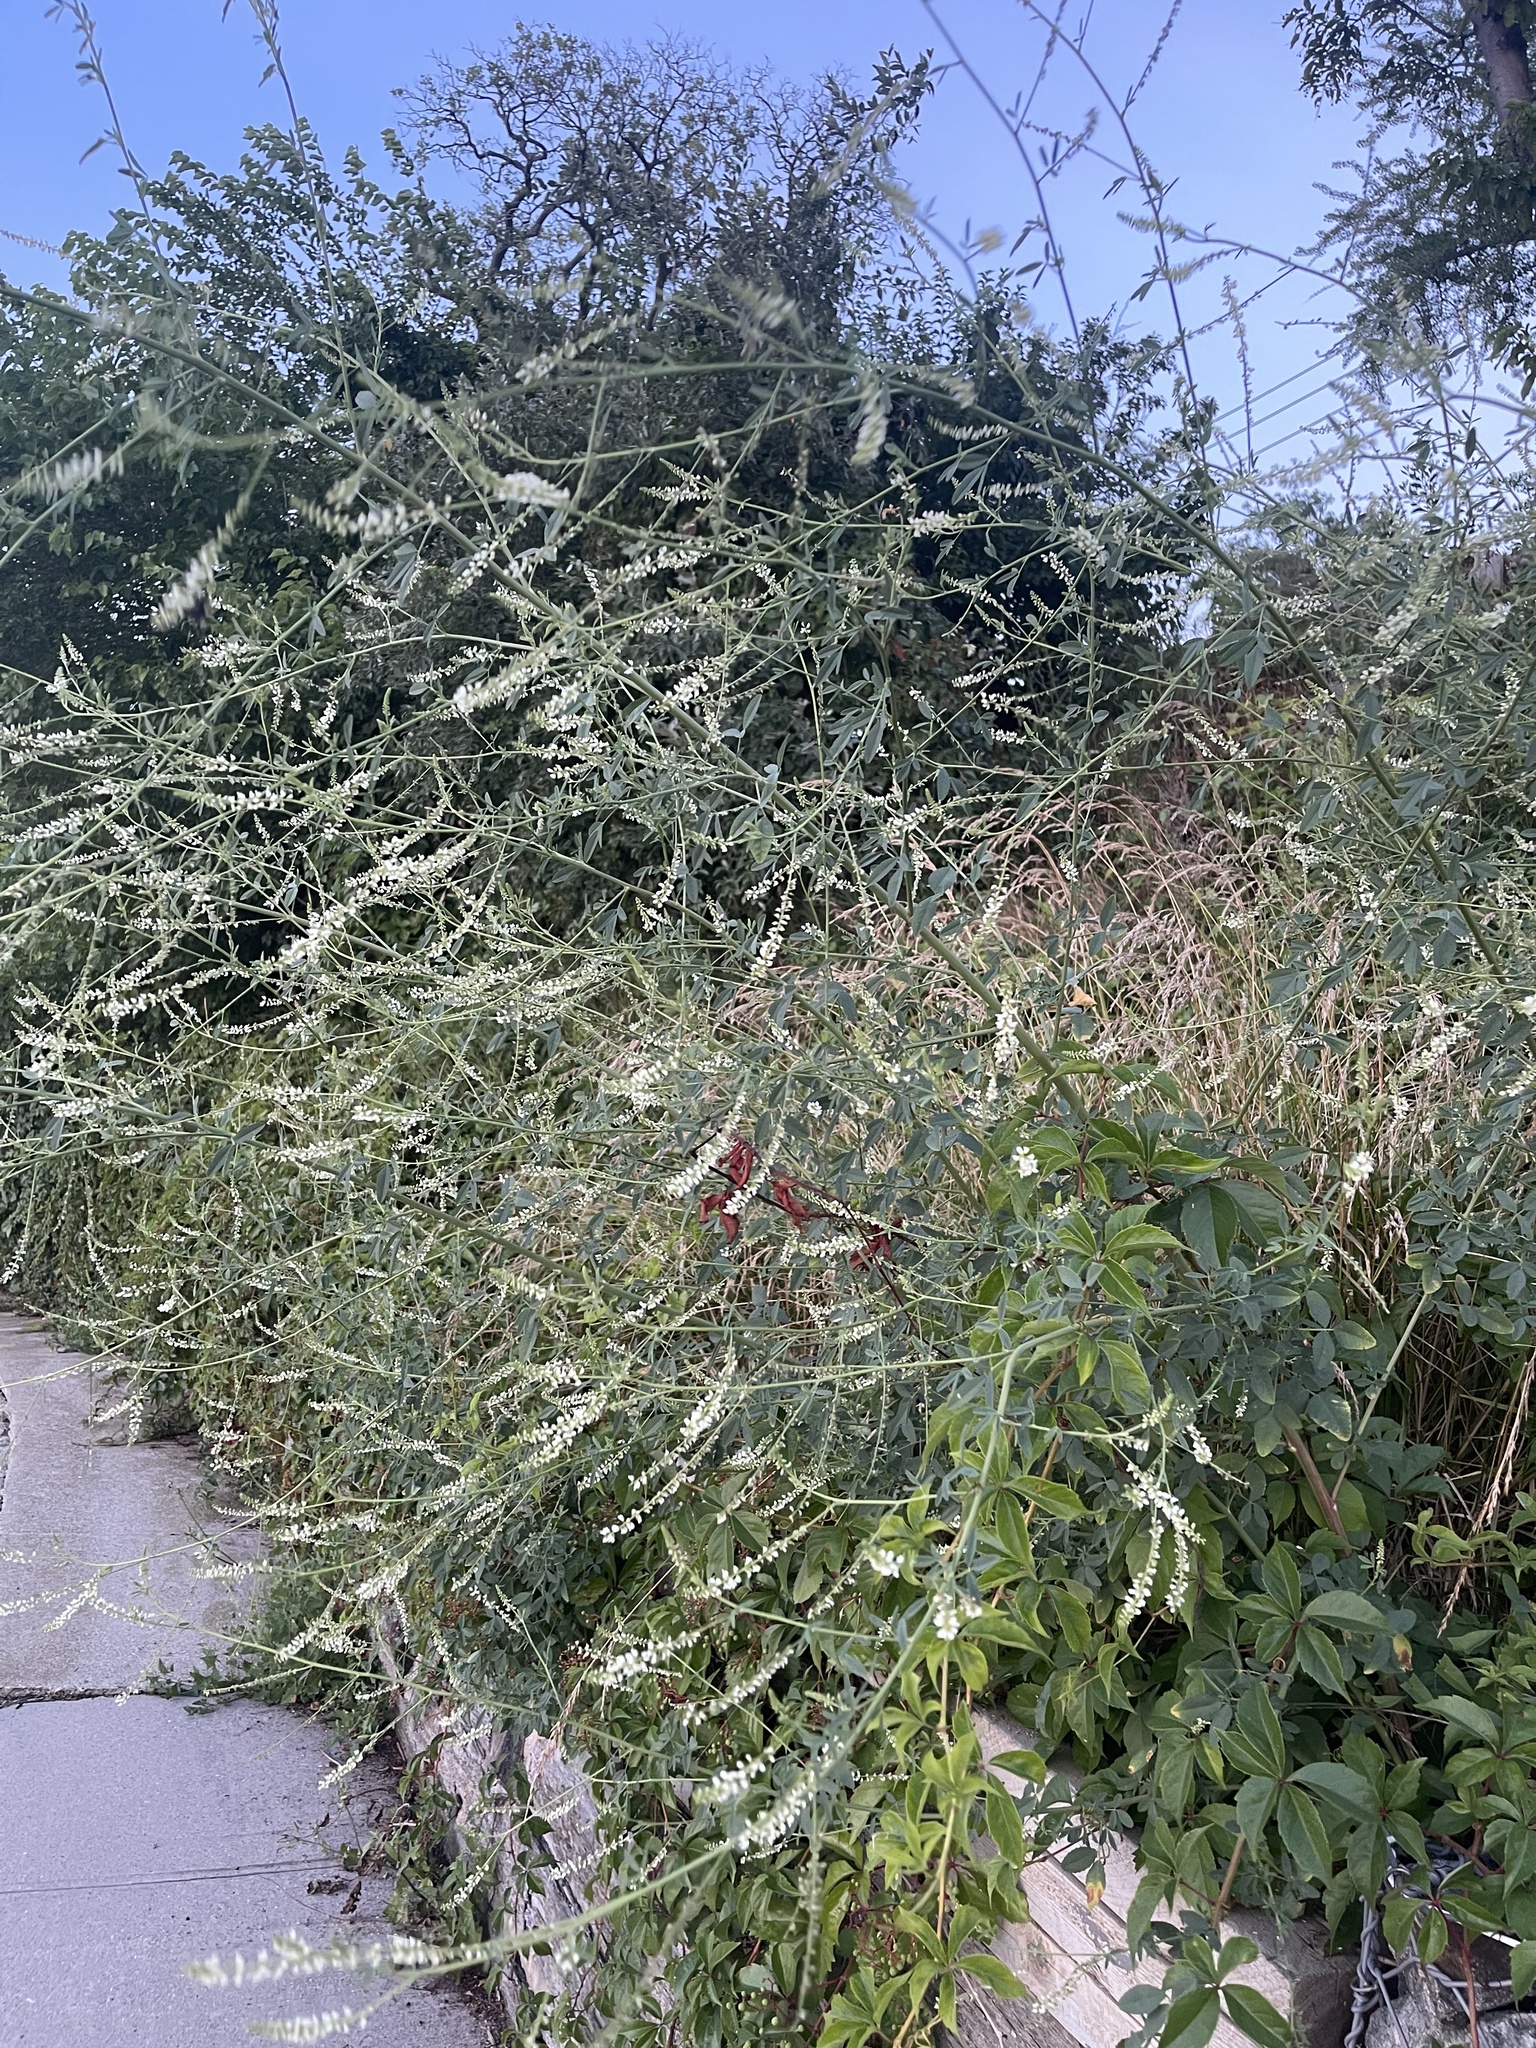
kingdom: Plantae
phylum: Tracheophyta
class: Magnoliopsida
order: Fabales
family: Fabaceae
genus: Melilotus
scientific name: Melilotus albus
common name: White melilot
